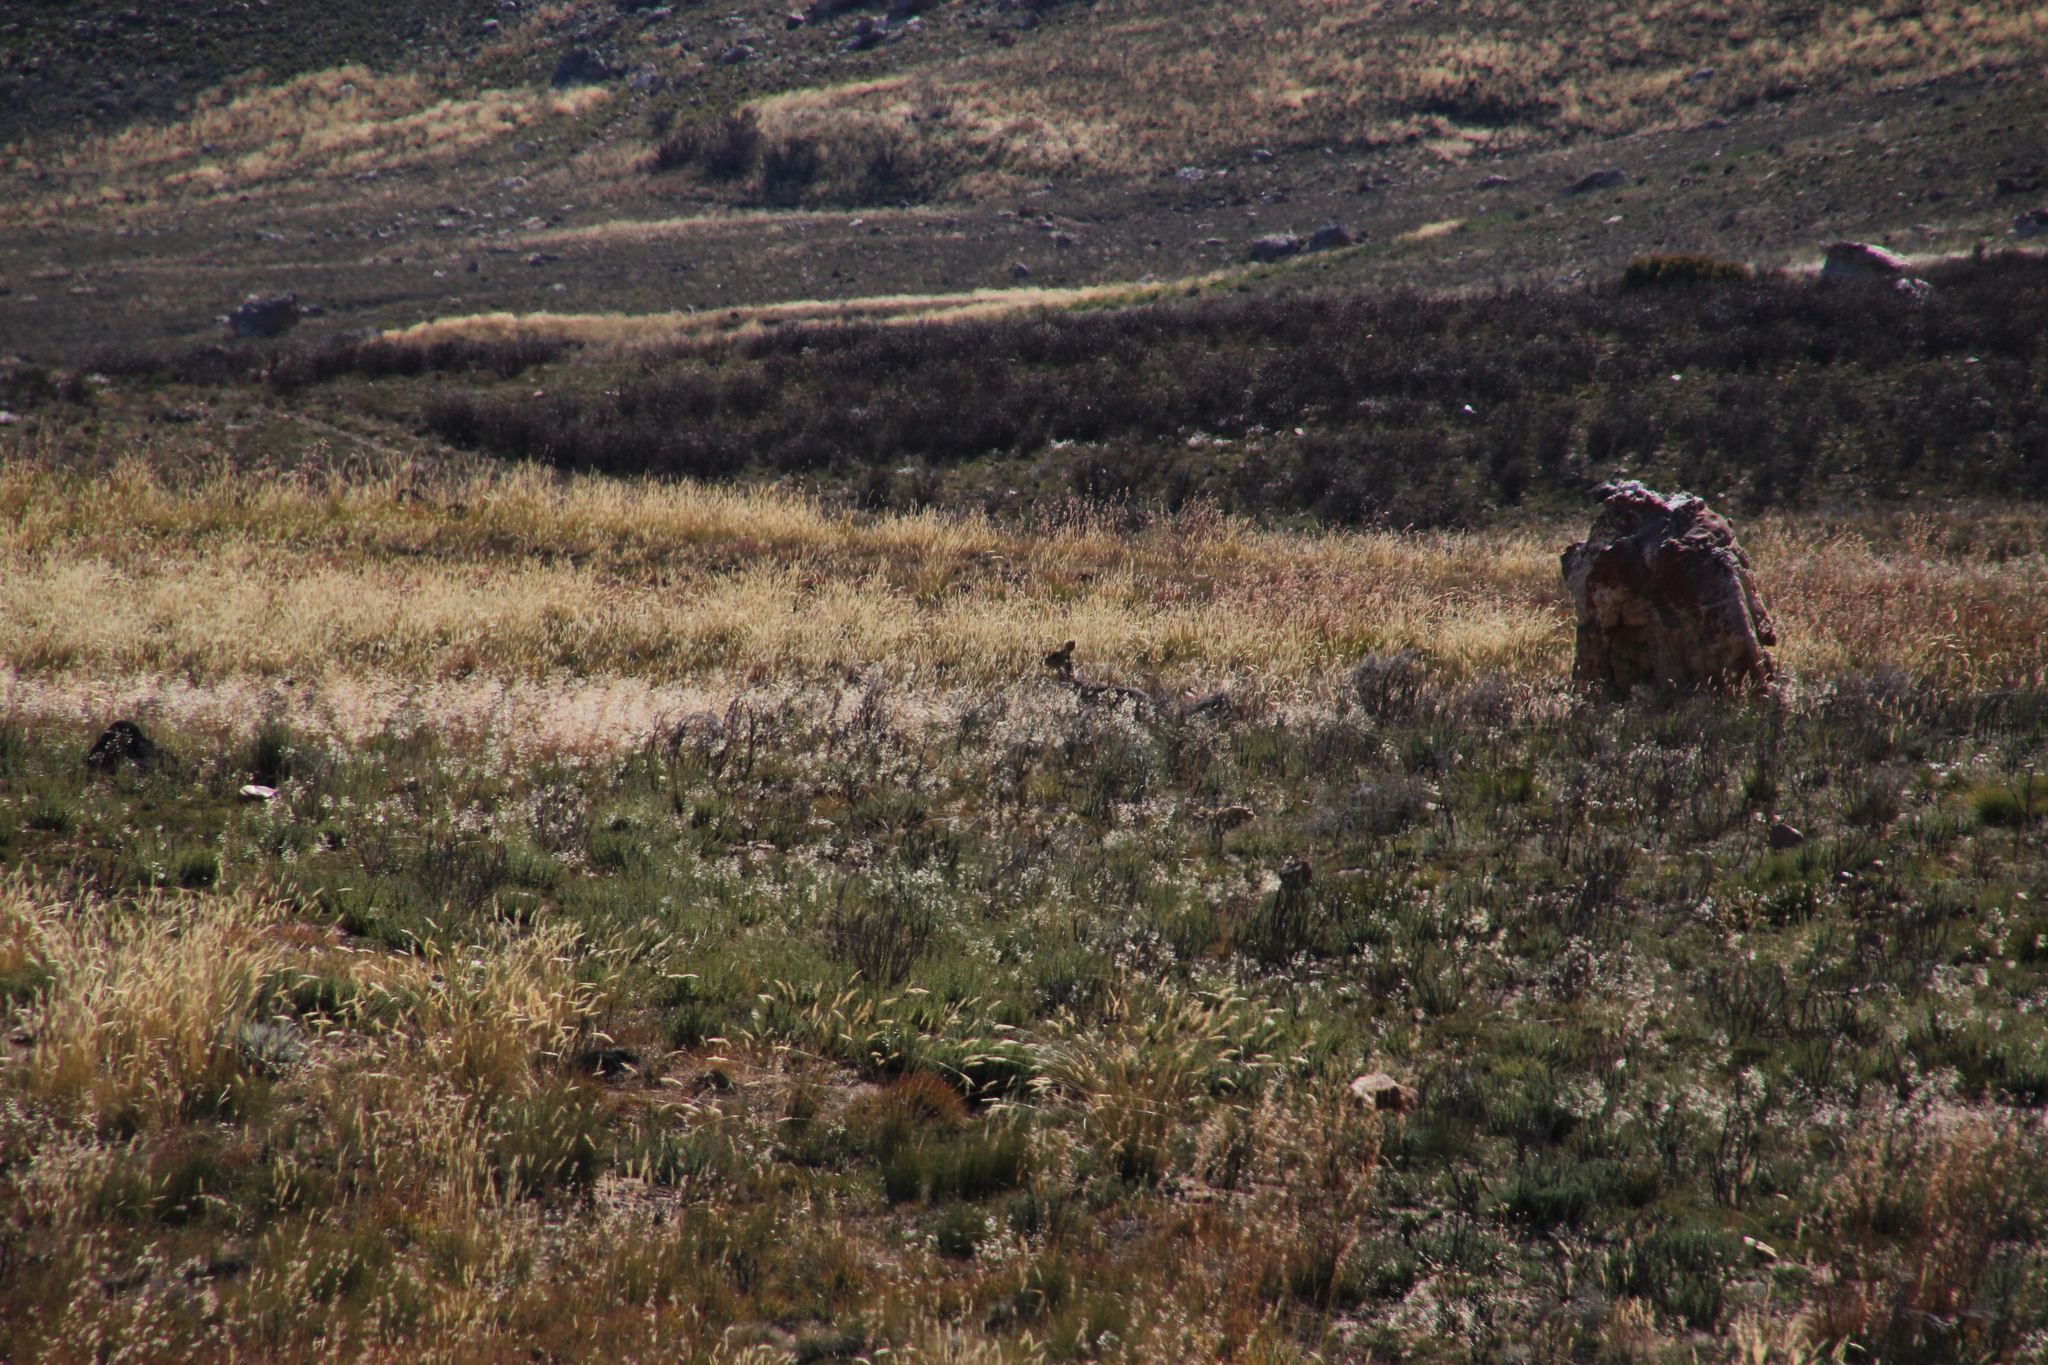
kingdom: Animalia
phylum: Chordata
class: Mammalia
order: Artiodactyla
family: Bovidae
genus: Oreotragus
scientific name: Oreotragus oreotragus
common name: Klipspringer
